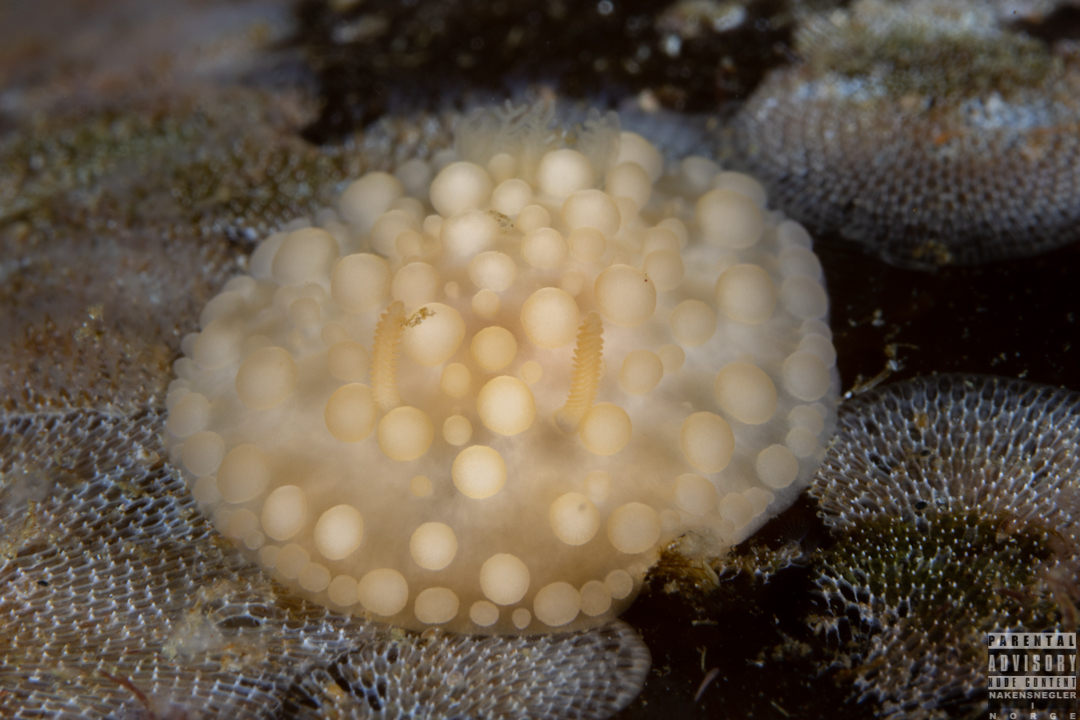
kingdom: Animalia
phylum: Mollusca
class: Gastropoda
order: Nudibranchia
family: Onchidorididae
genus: Adalaria
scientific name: Adalaria loveni
